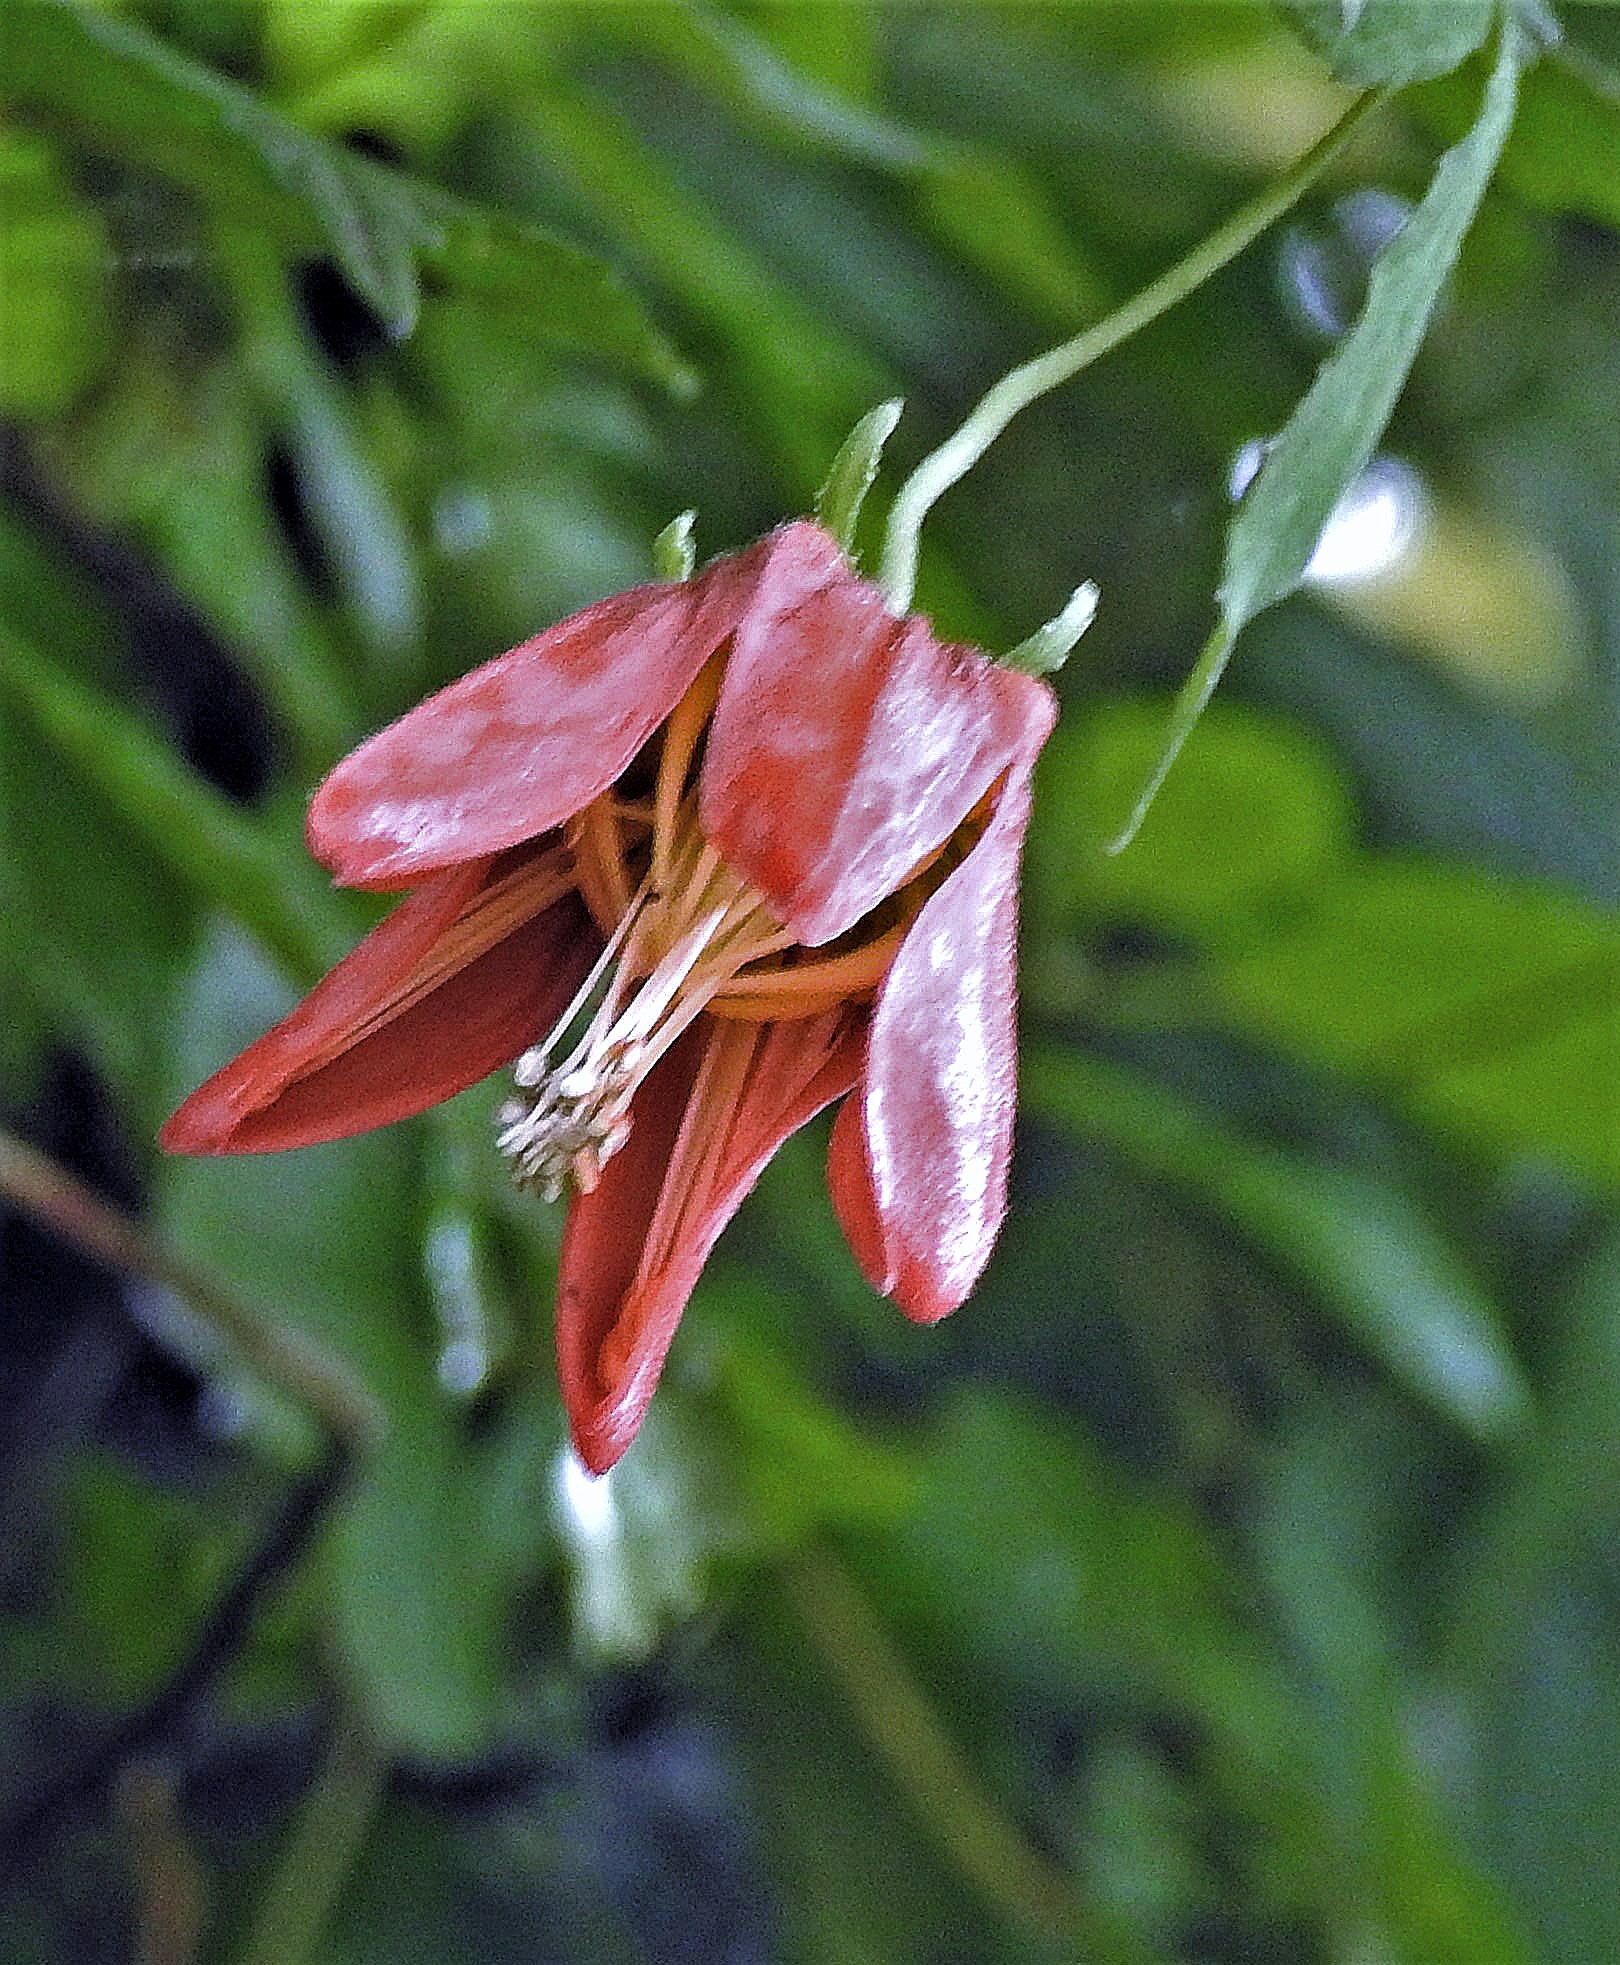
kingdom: Plantae
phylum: Tracheophyta
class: Magnoliopsida
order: Cornales
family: Loasaceae
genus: Caiophora
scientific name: Caiophora hibiscifolia
